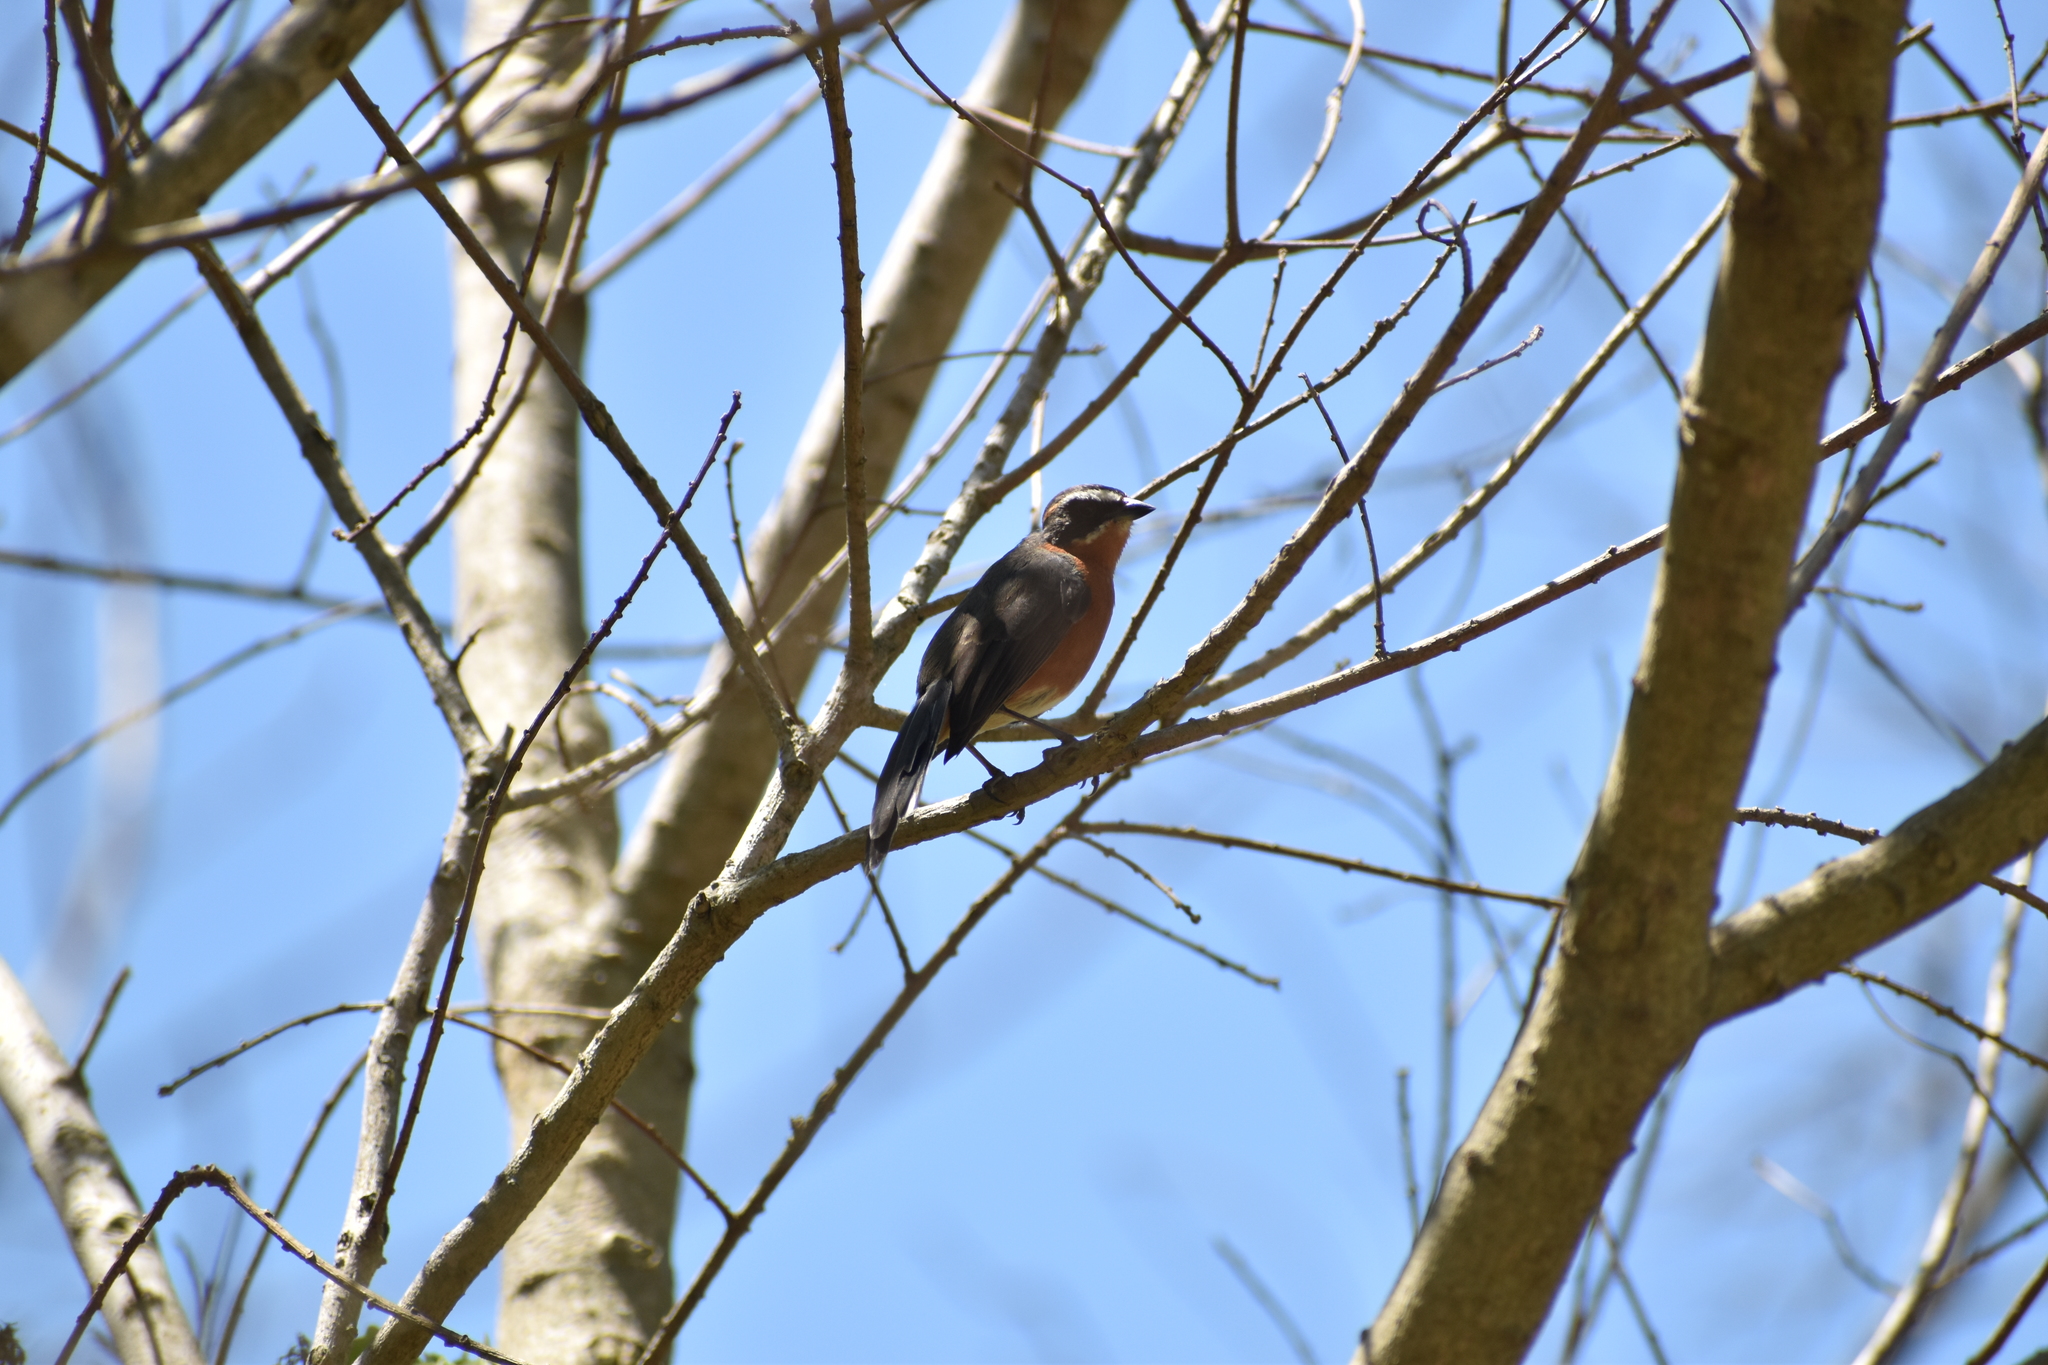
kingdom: Animalia
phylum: Chordata
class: Aves
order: Passeriformes
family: Thraupidae
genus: Poospiza
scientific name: Poospiza nigrorufa
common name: Black-and-rufous warbling finch
